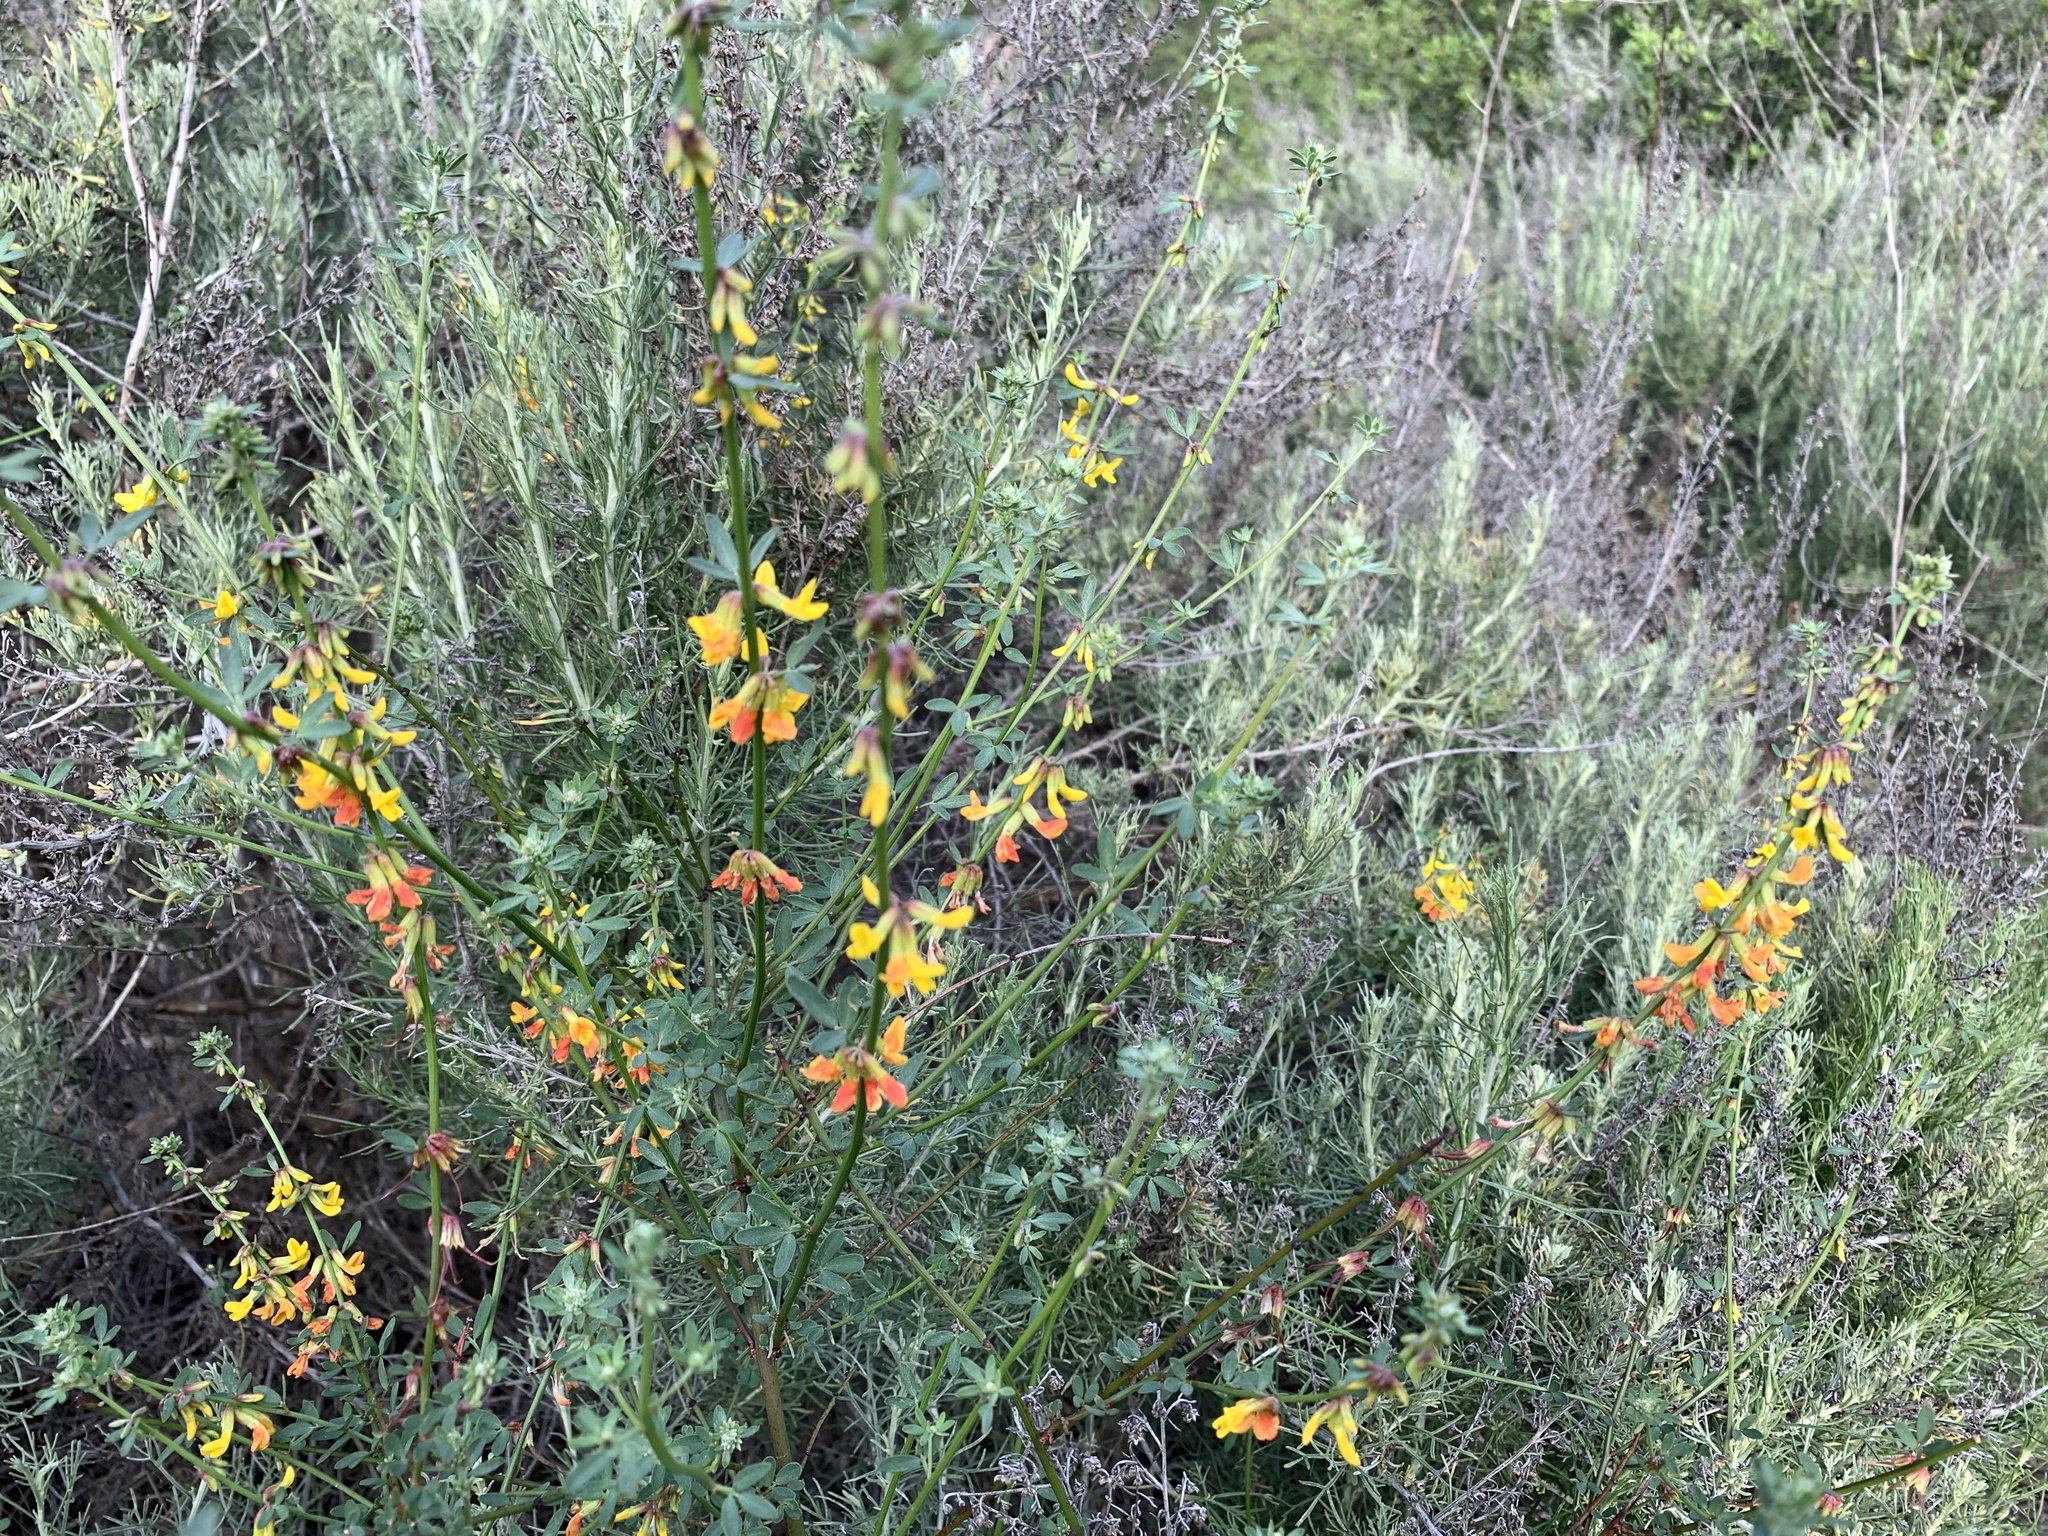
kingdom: Plantae
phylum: Tracheophyta
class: Magnoliopsida
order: Fabales
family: Fabaceae
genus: Acmispon
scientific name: Acmispon glaber
